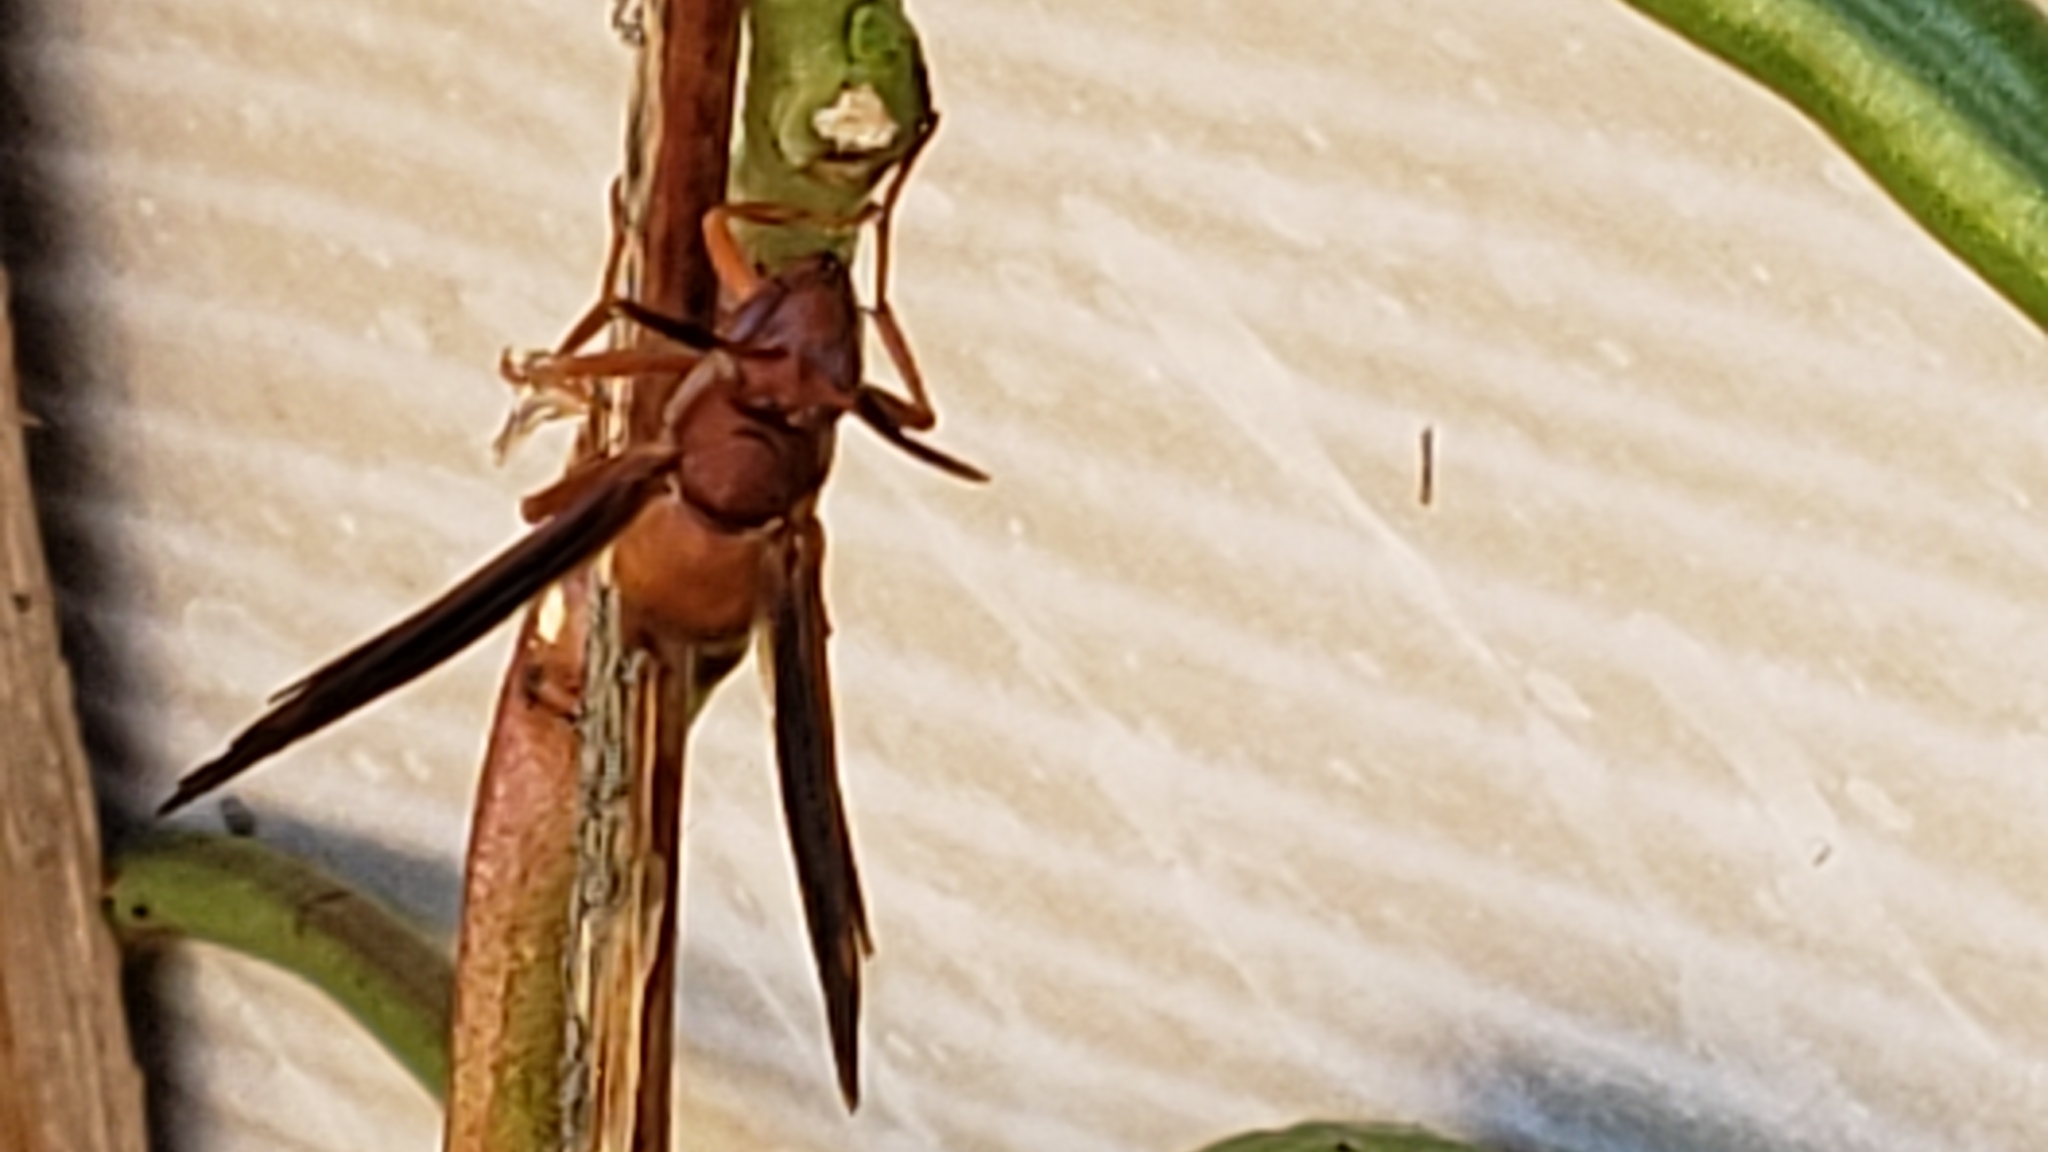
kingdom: Animalia
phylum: Arthropoda
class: Insecta
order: Hymenoptera
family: Eumenidae
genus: Polistes
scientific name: Polistes carolina
